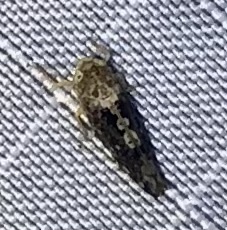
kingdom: Animalia
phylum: Arthropoda
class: Insecta
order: Hemiptera
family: Cicadellidae
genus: Prescottia
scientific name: Prescottia lobata
